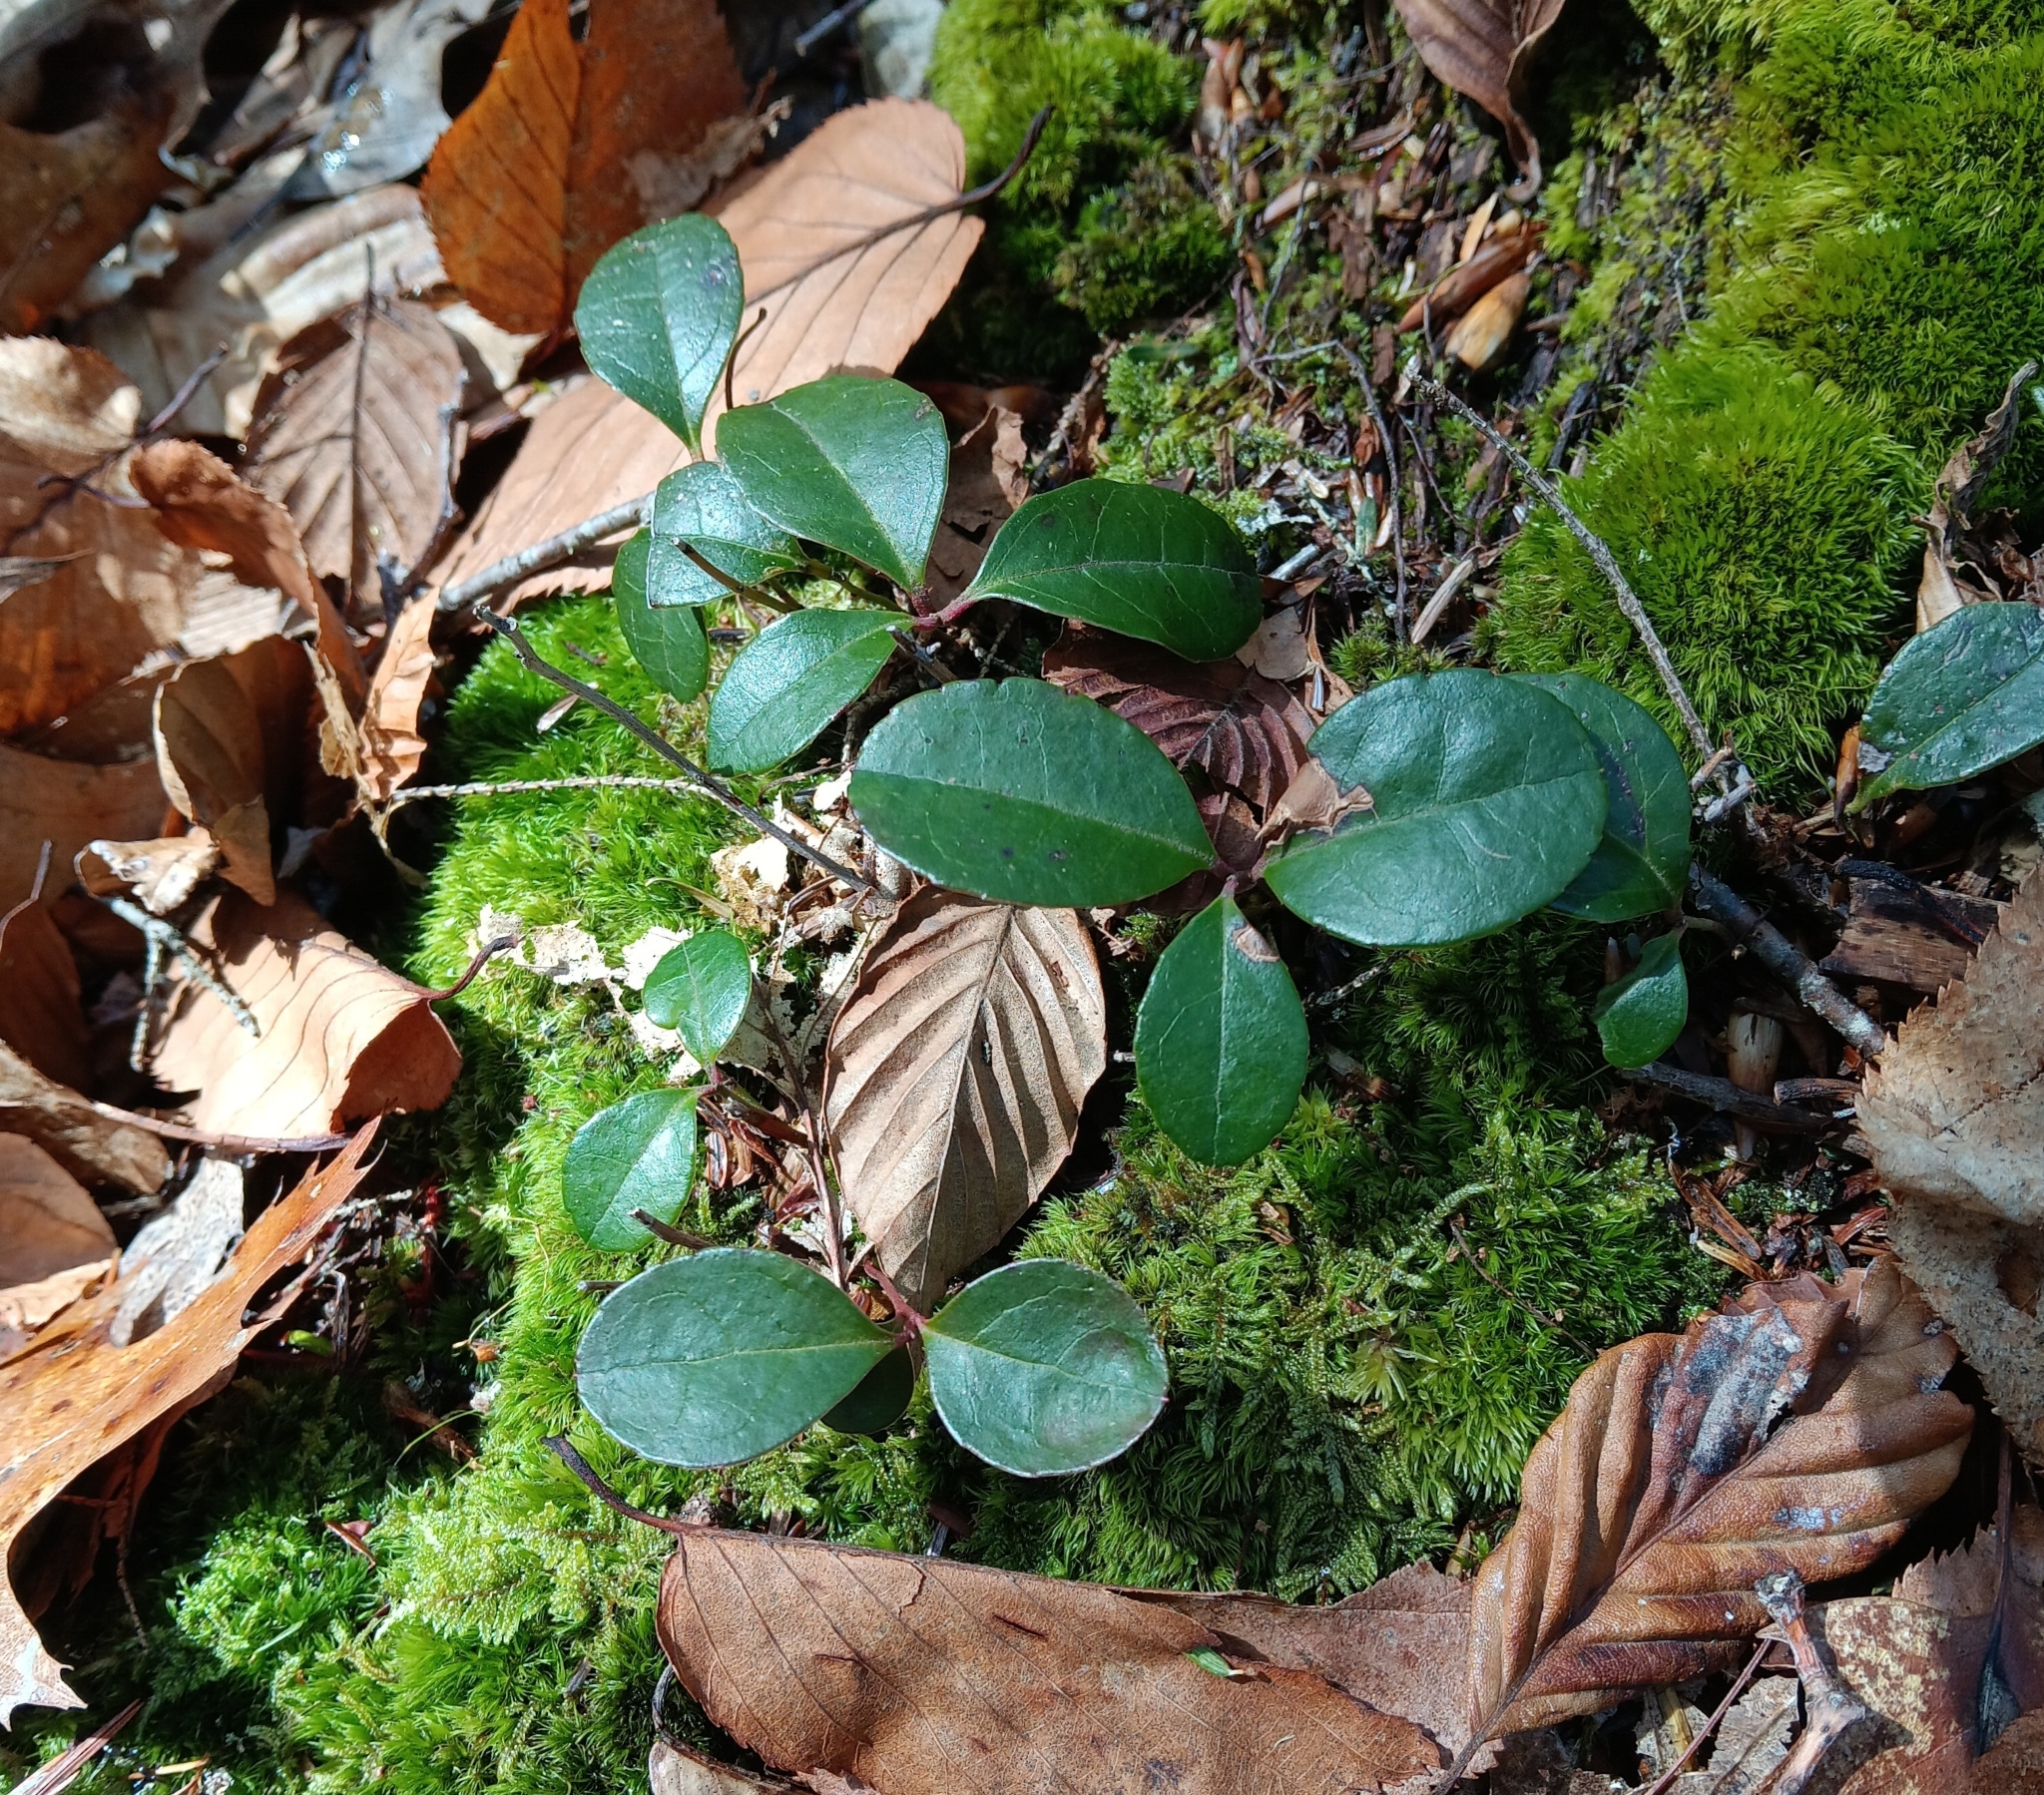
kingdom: Plantae
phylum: Tracheophyta
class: Magnoliopsida
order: Ericales
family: Ericaceae
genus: Gaultheria
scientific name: Gaultheria procumbens
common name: Checkerberry
